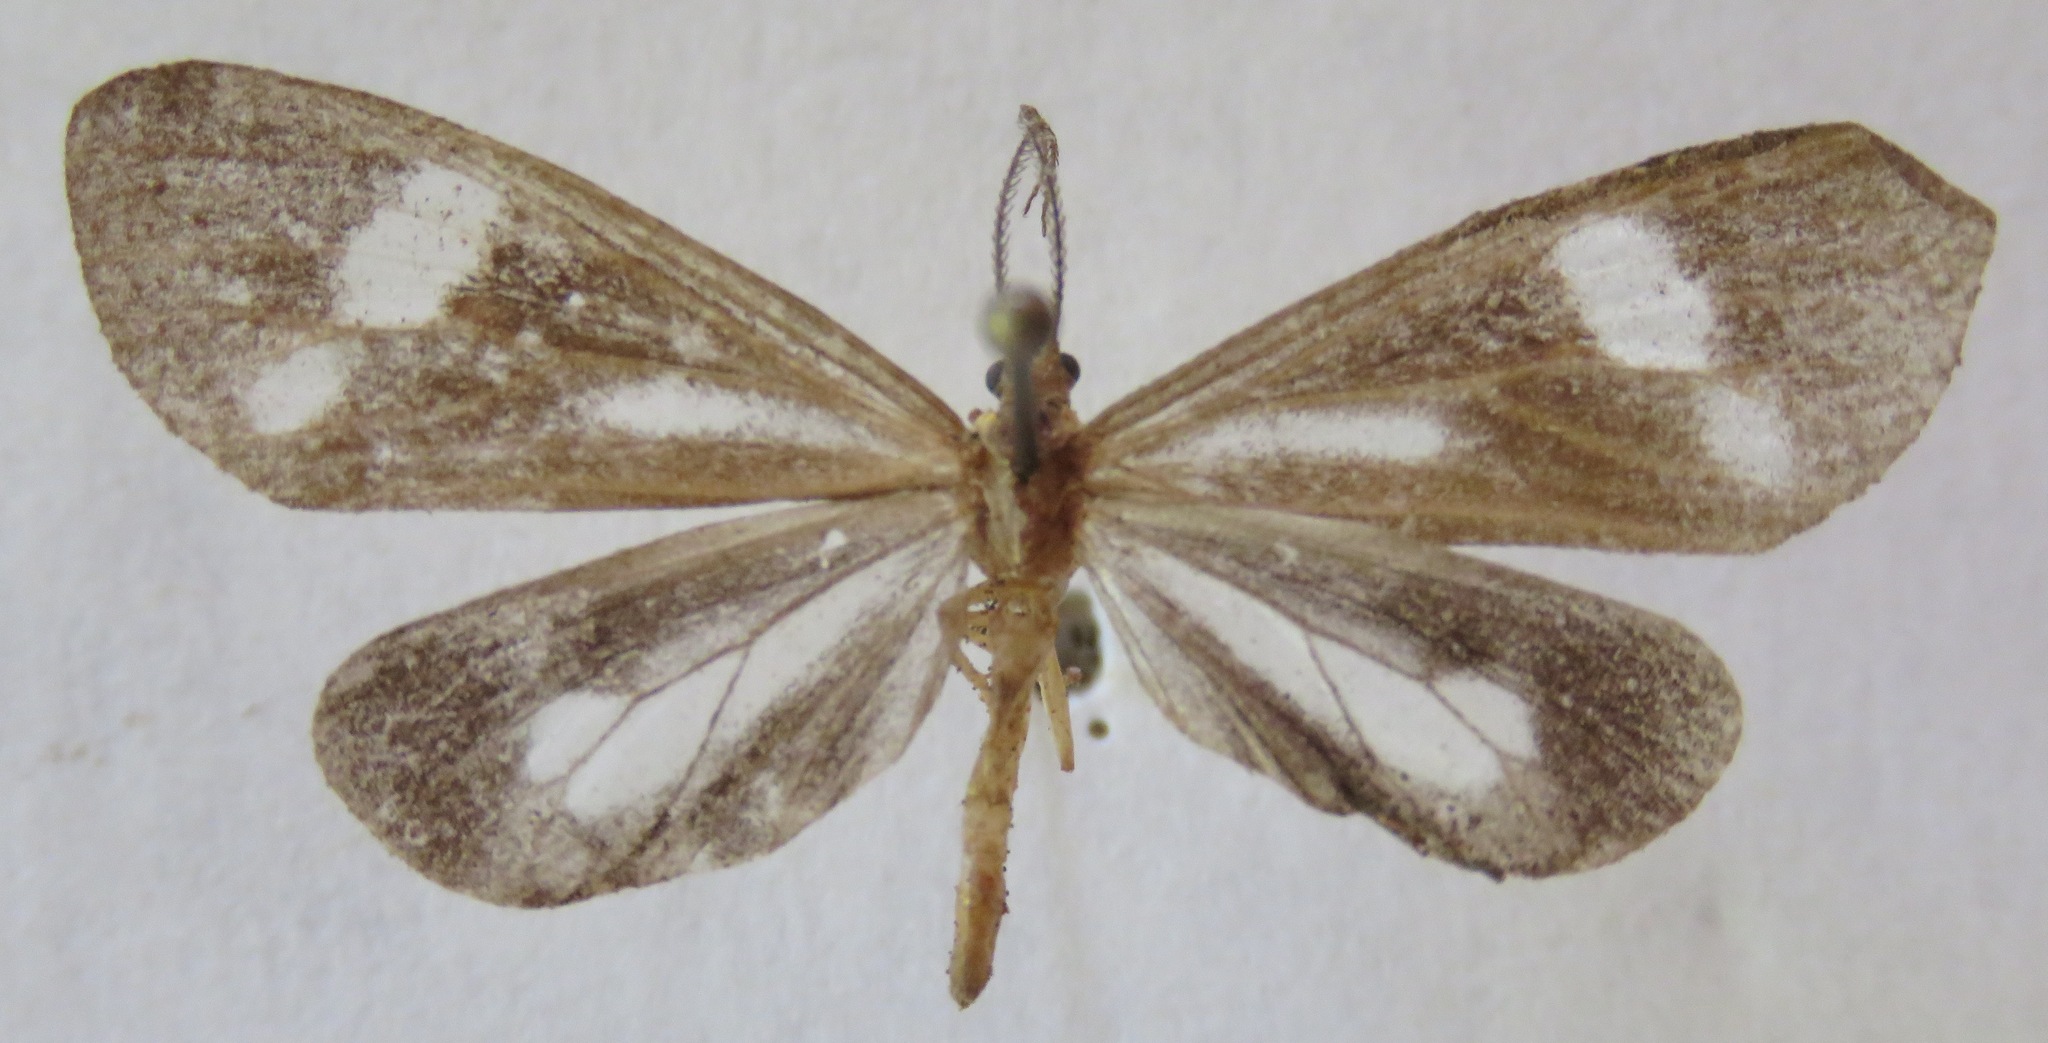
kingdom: Animalia
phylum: Arthropoda
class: Insecta
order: Lepidoptera
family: Notodontidae
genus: Dioptis
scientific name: Dioptis
